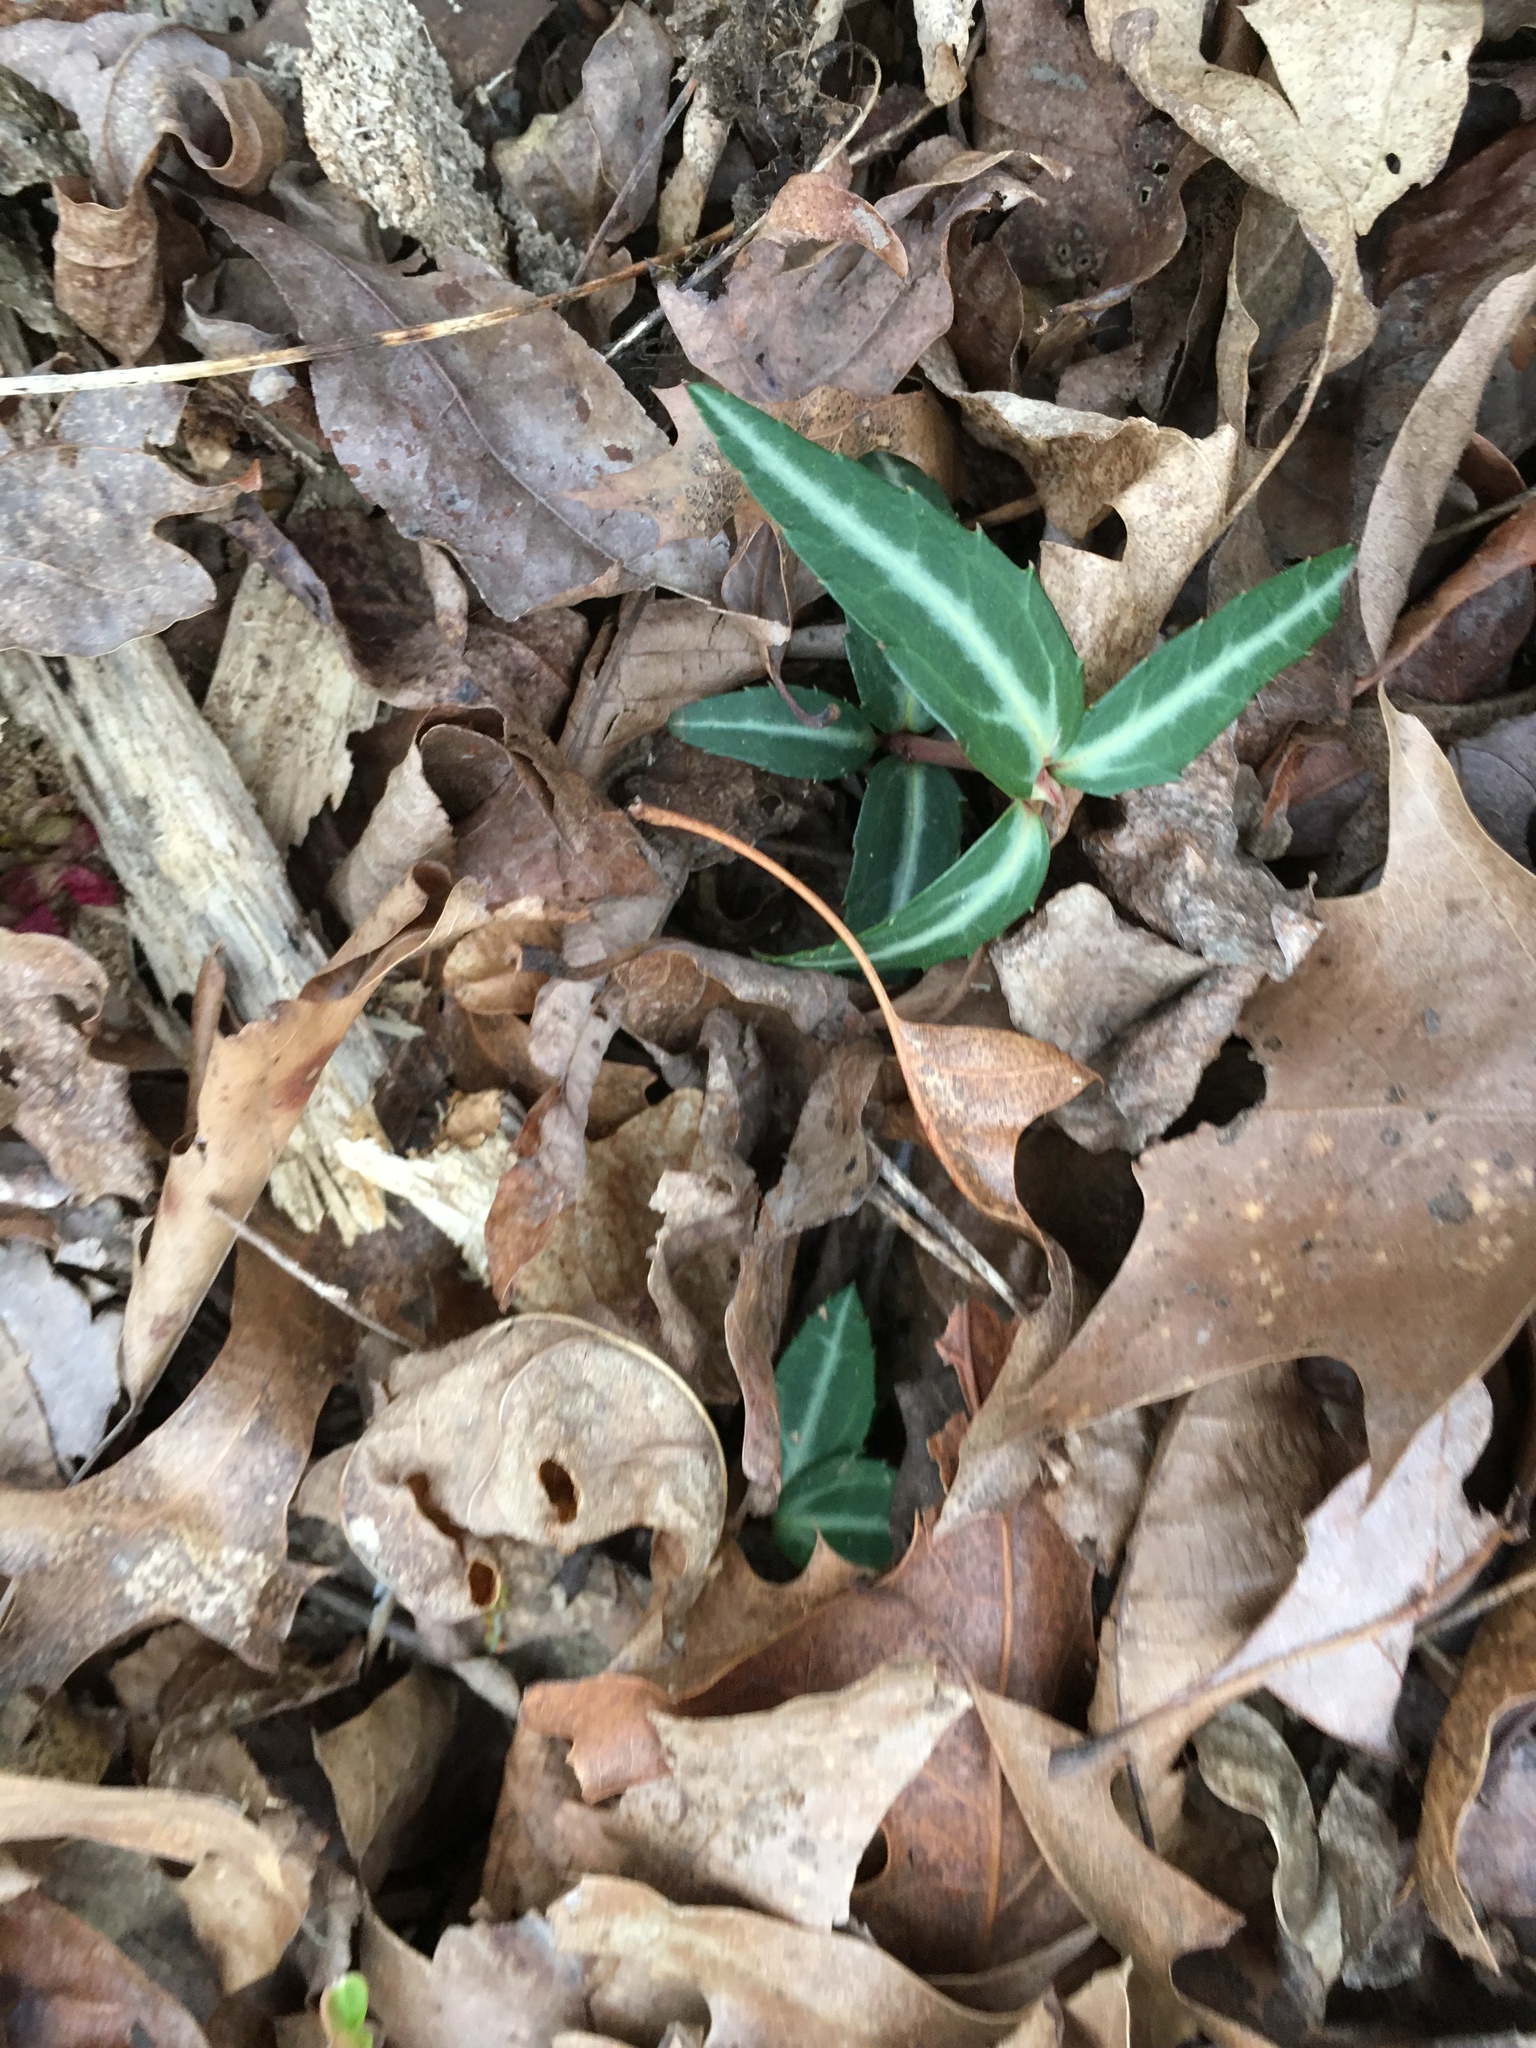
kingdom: Plantae
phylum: Tracheophyta
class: Magnoliopsida
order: Ericales
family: Ericaceae
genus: Chimaphila
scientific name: Chimaphila maculata
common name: Spotted pipsissewa
